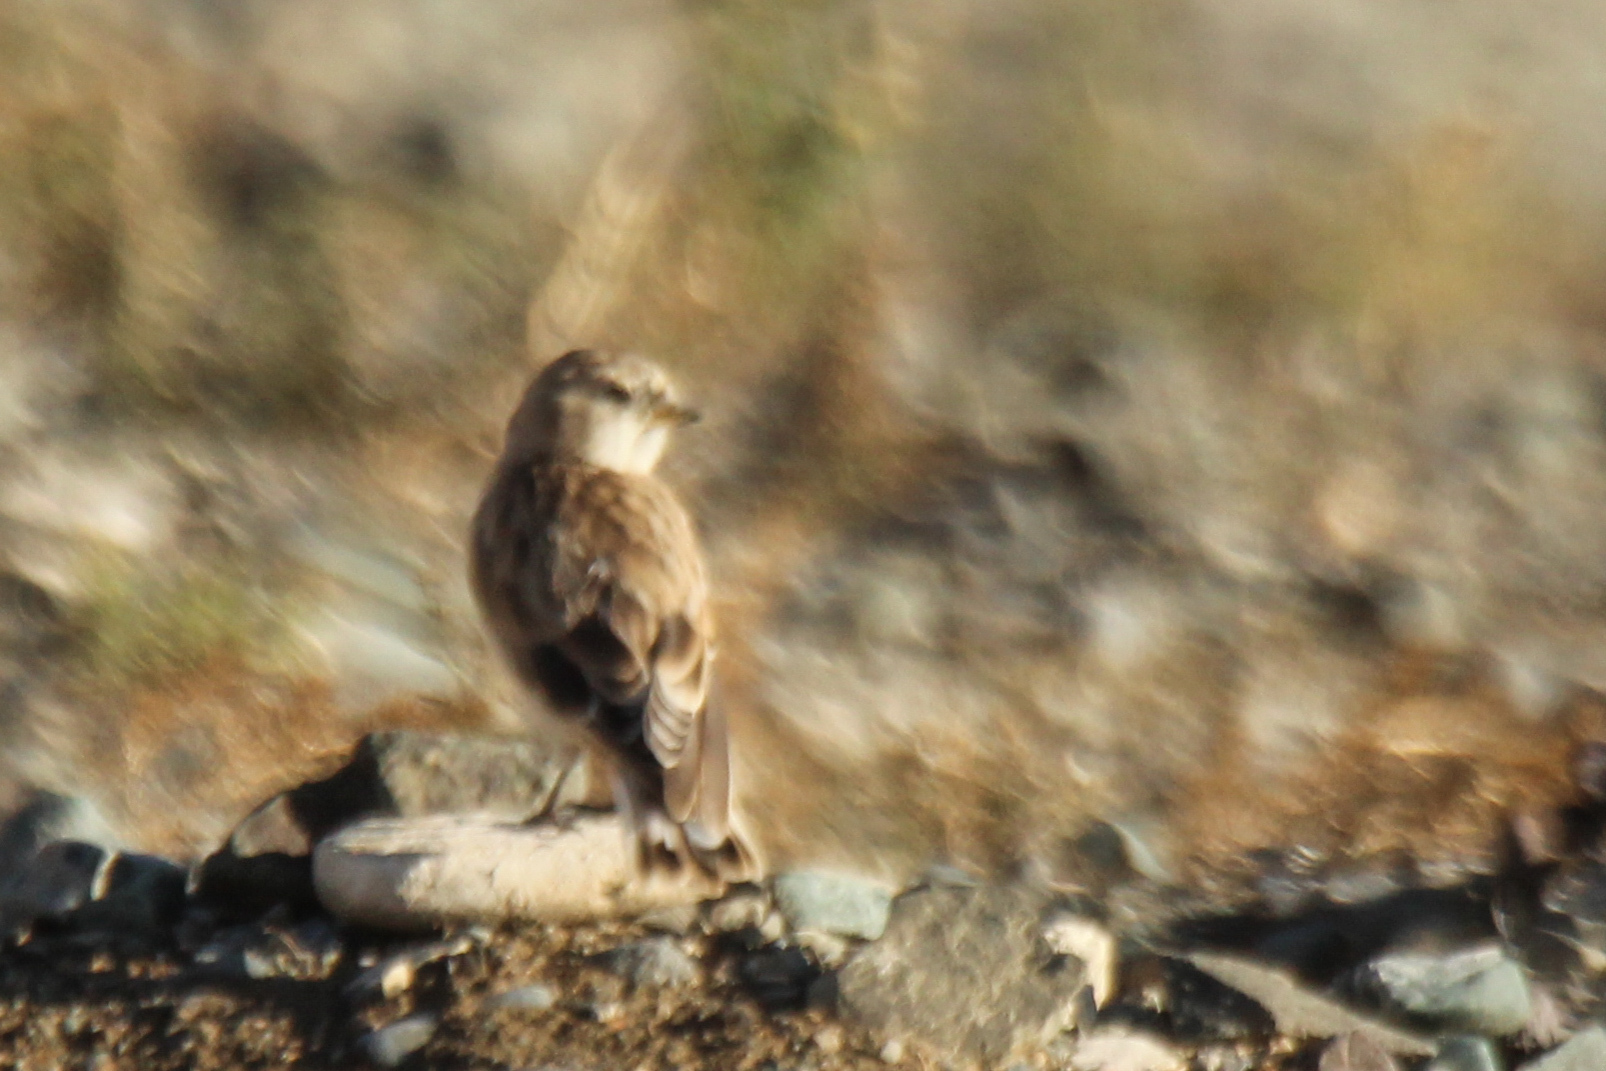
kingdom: Animalia
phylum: Chordata
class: Aves
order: Passeriformes
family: Passeridae
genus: Pyrgilauda
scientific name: Pyrgilauda davidiana
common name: Pere david's snowfinch
